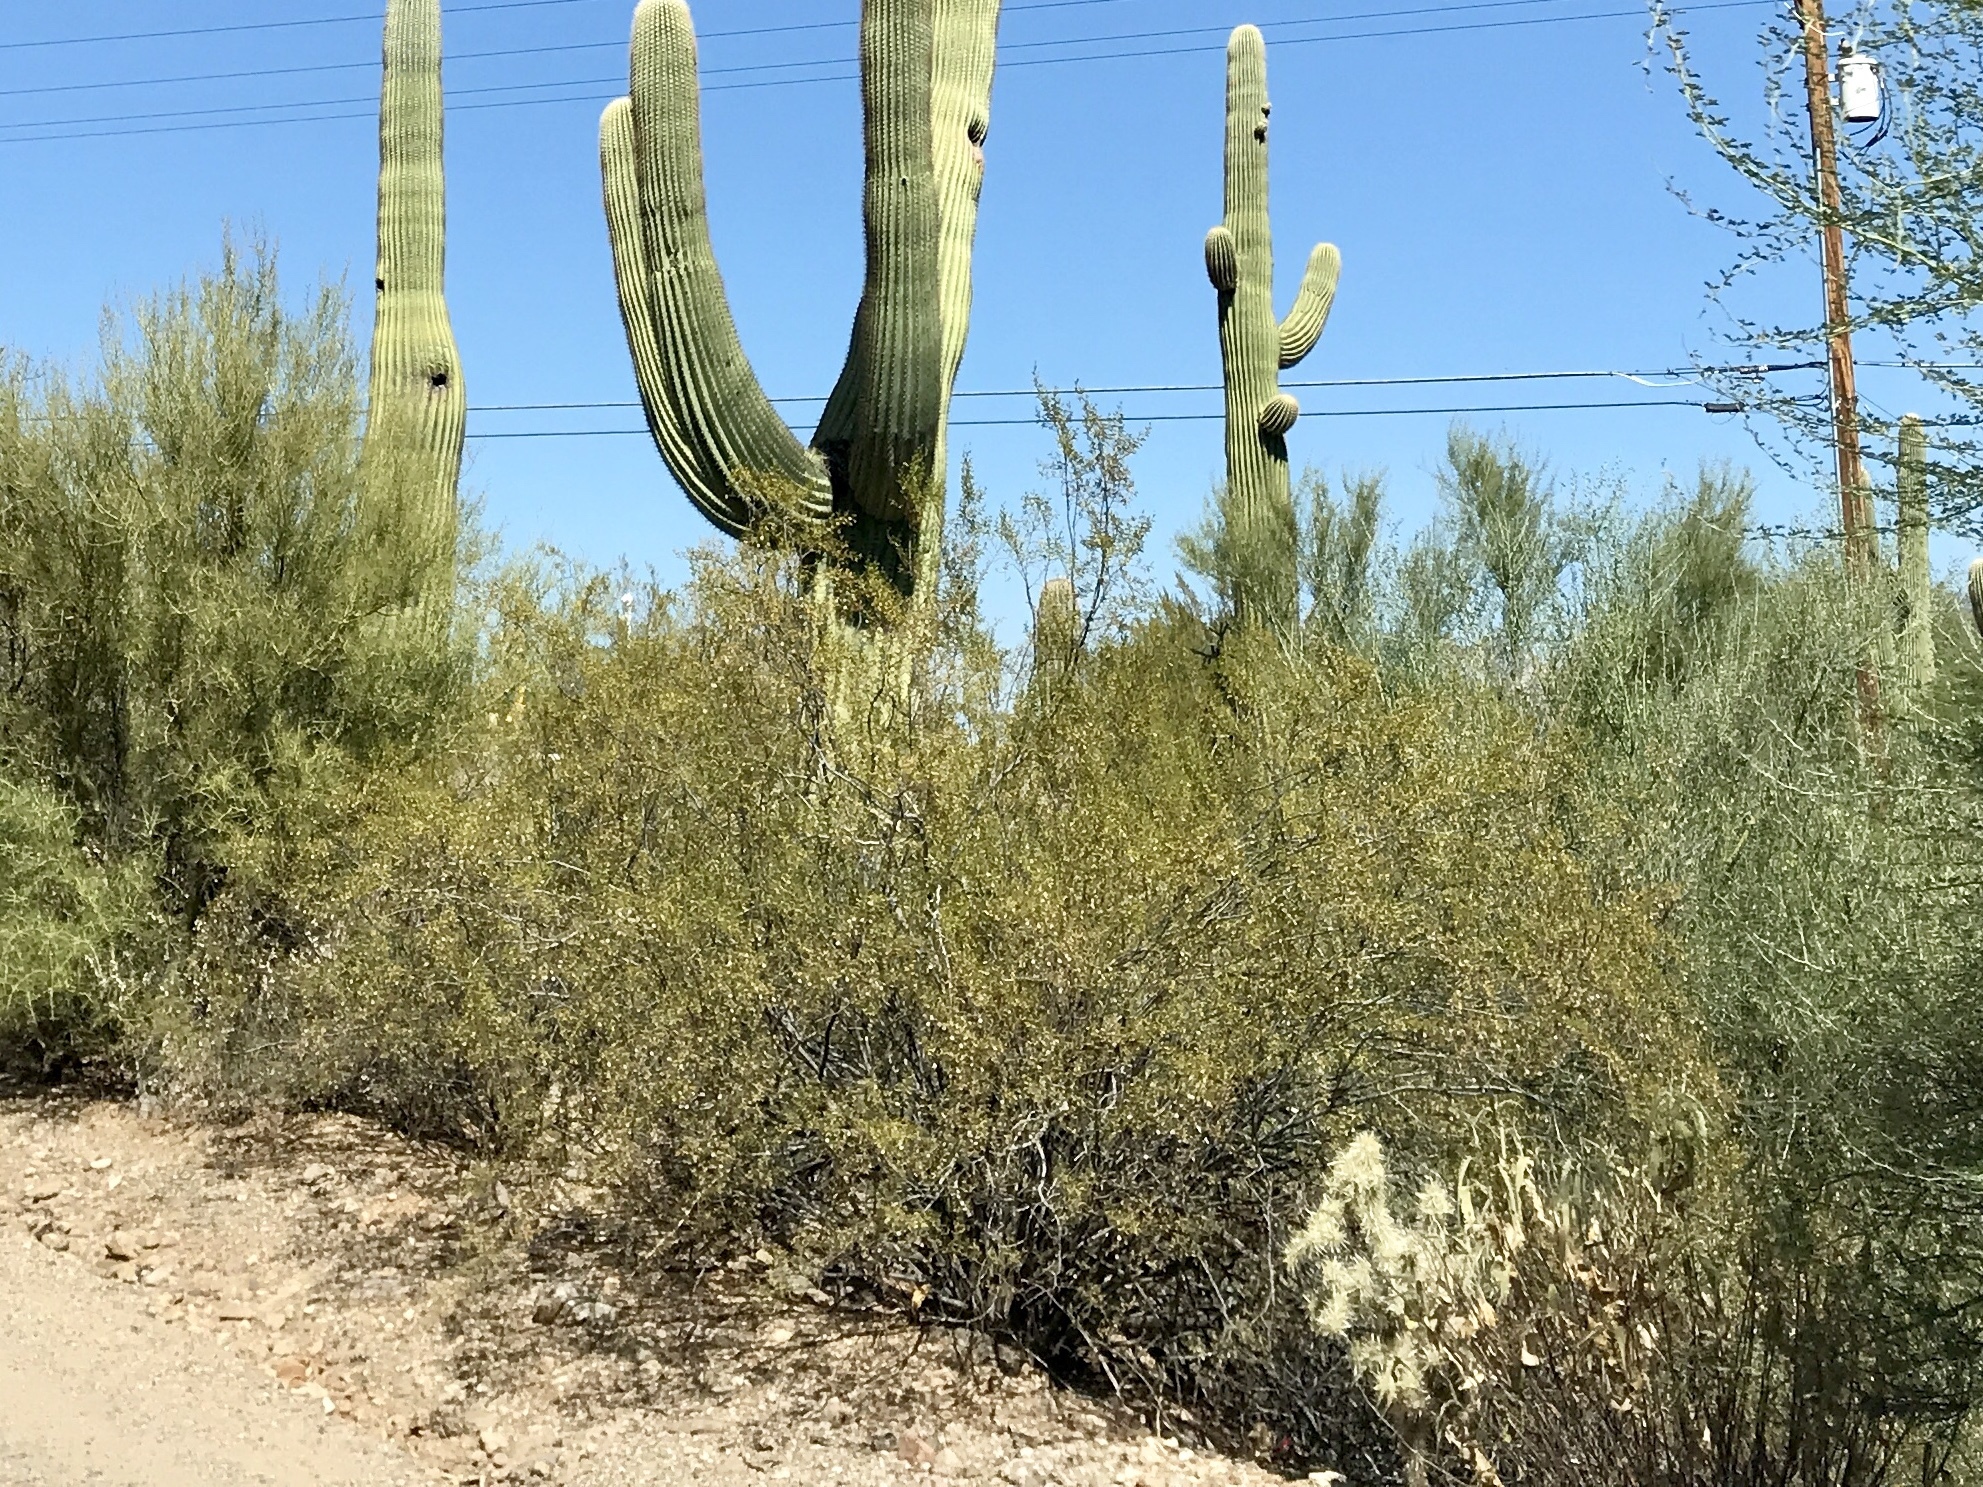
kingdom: Plantae
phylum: Tracheophyta
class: Magnoliopsida
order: Zygophyllales
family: Zygophyllaceae
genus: Larrea
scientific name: Larrea tridentata
